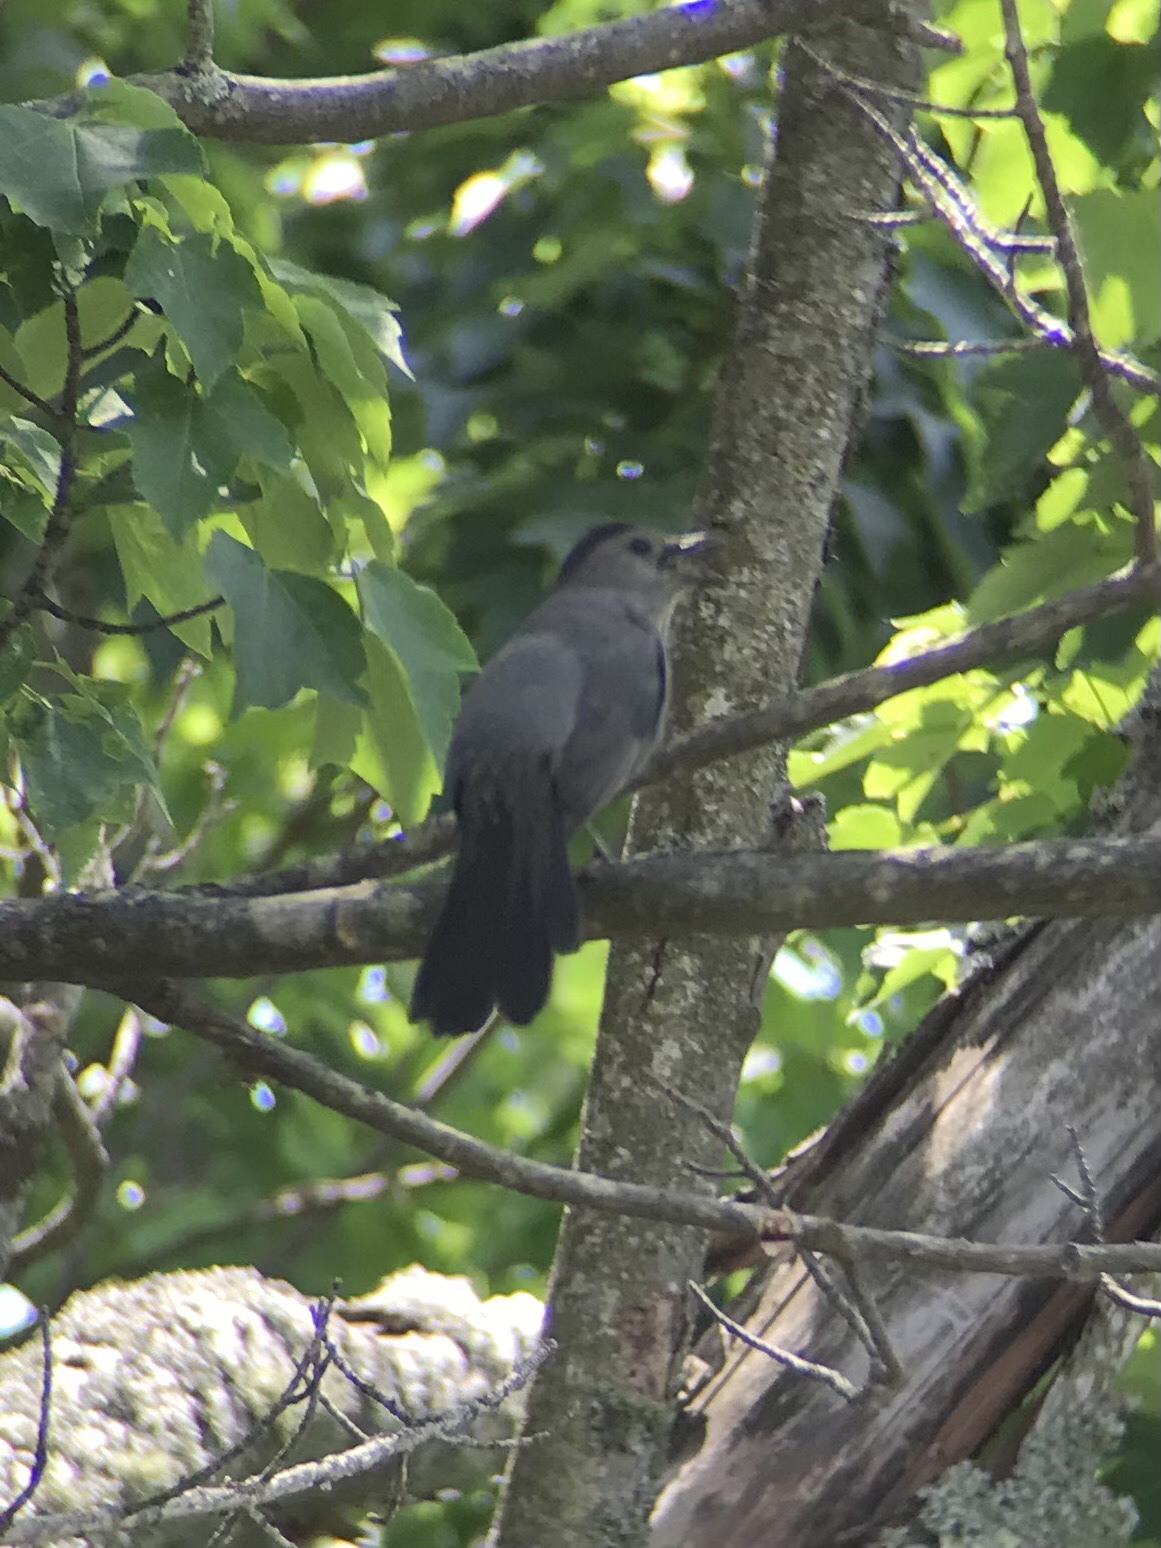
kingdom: Animalia
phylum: Chordata
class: Aves
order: Passeriformes
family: Mimidae
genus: Dumetella
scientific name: Dumetella carolinensis
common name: Gray catbird
